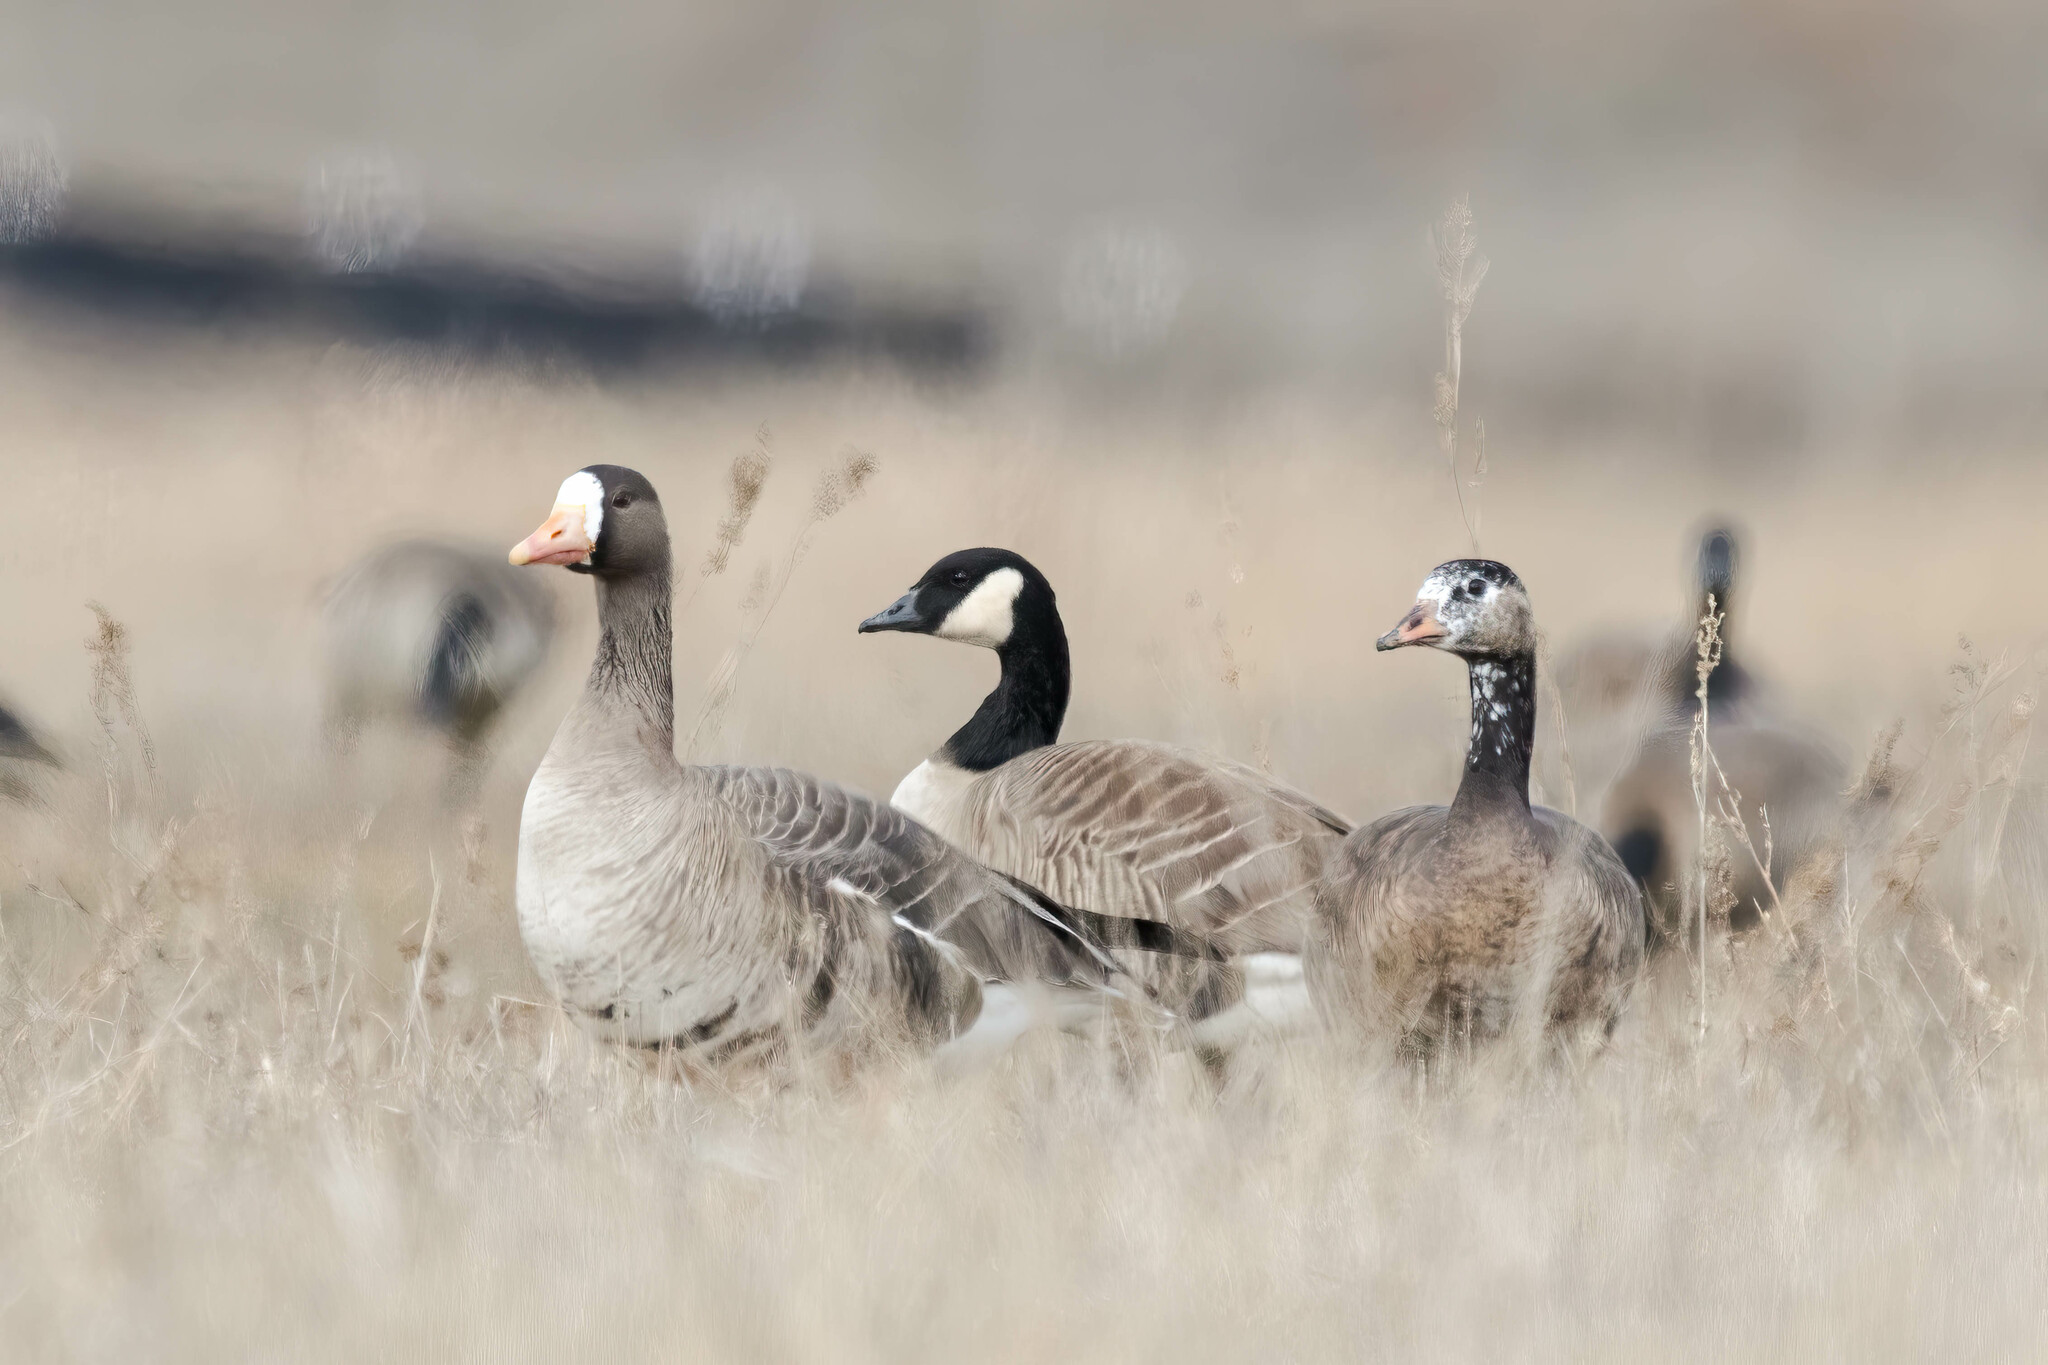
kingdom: Animalia
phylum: Chordata
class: Aves
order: Anseriformes
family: Anatidae
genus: Anser
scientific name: Anser albifrons
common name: Greater white-fronted goose
